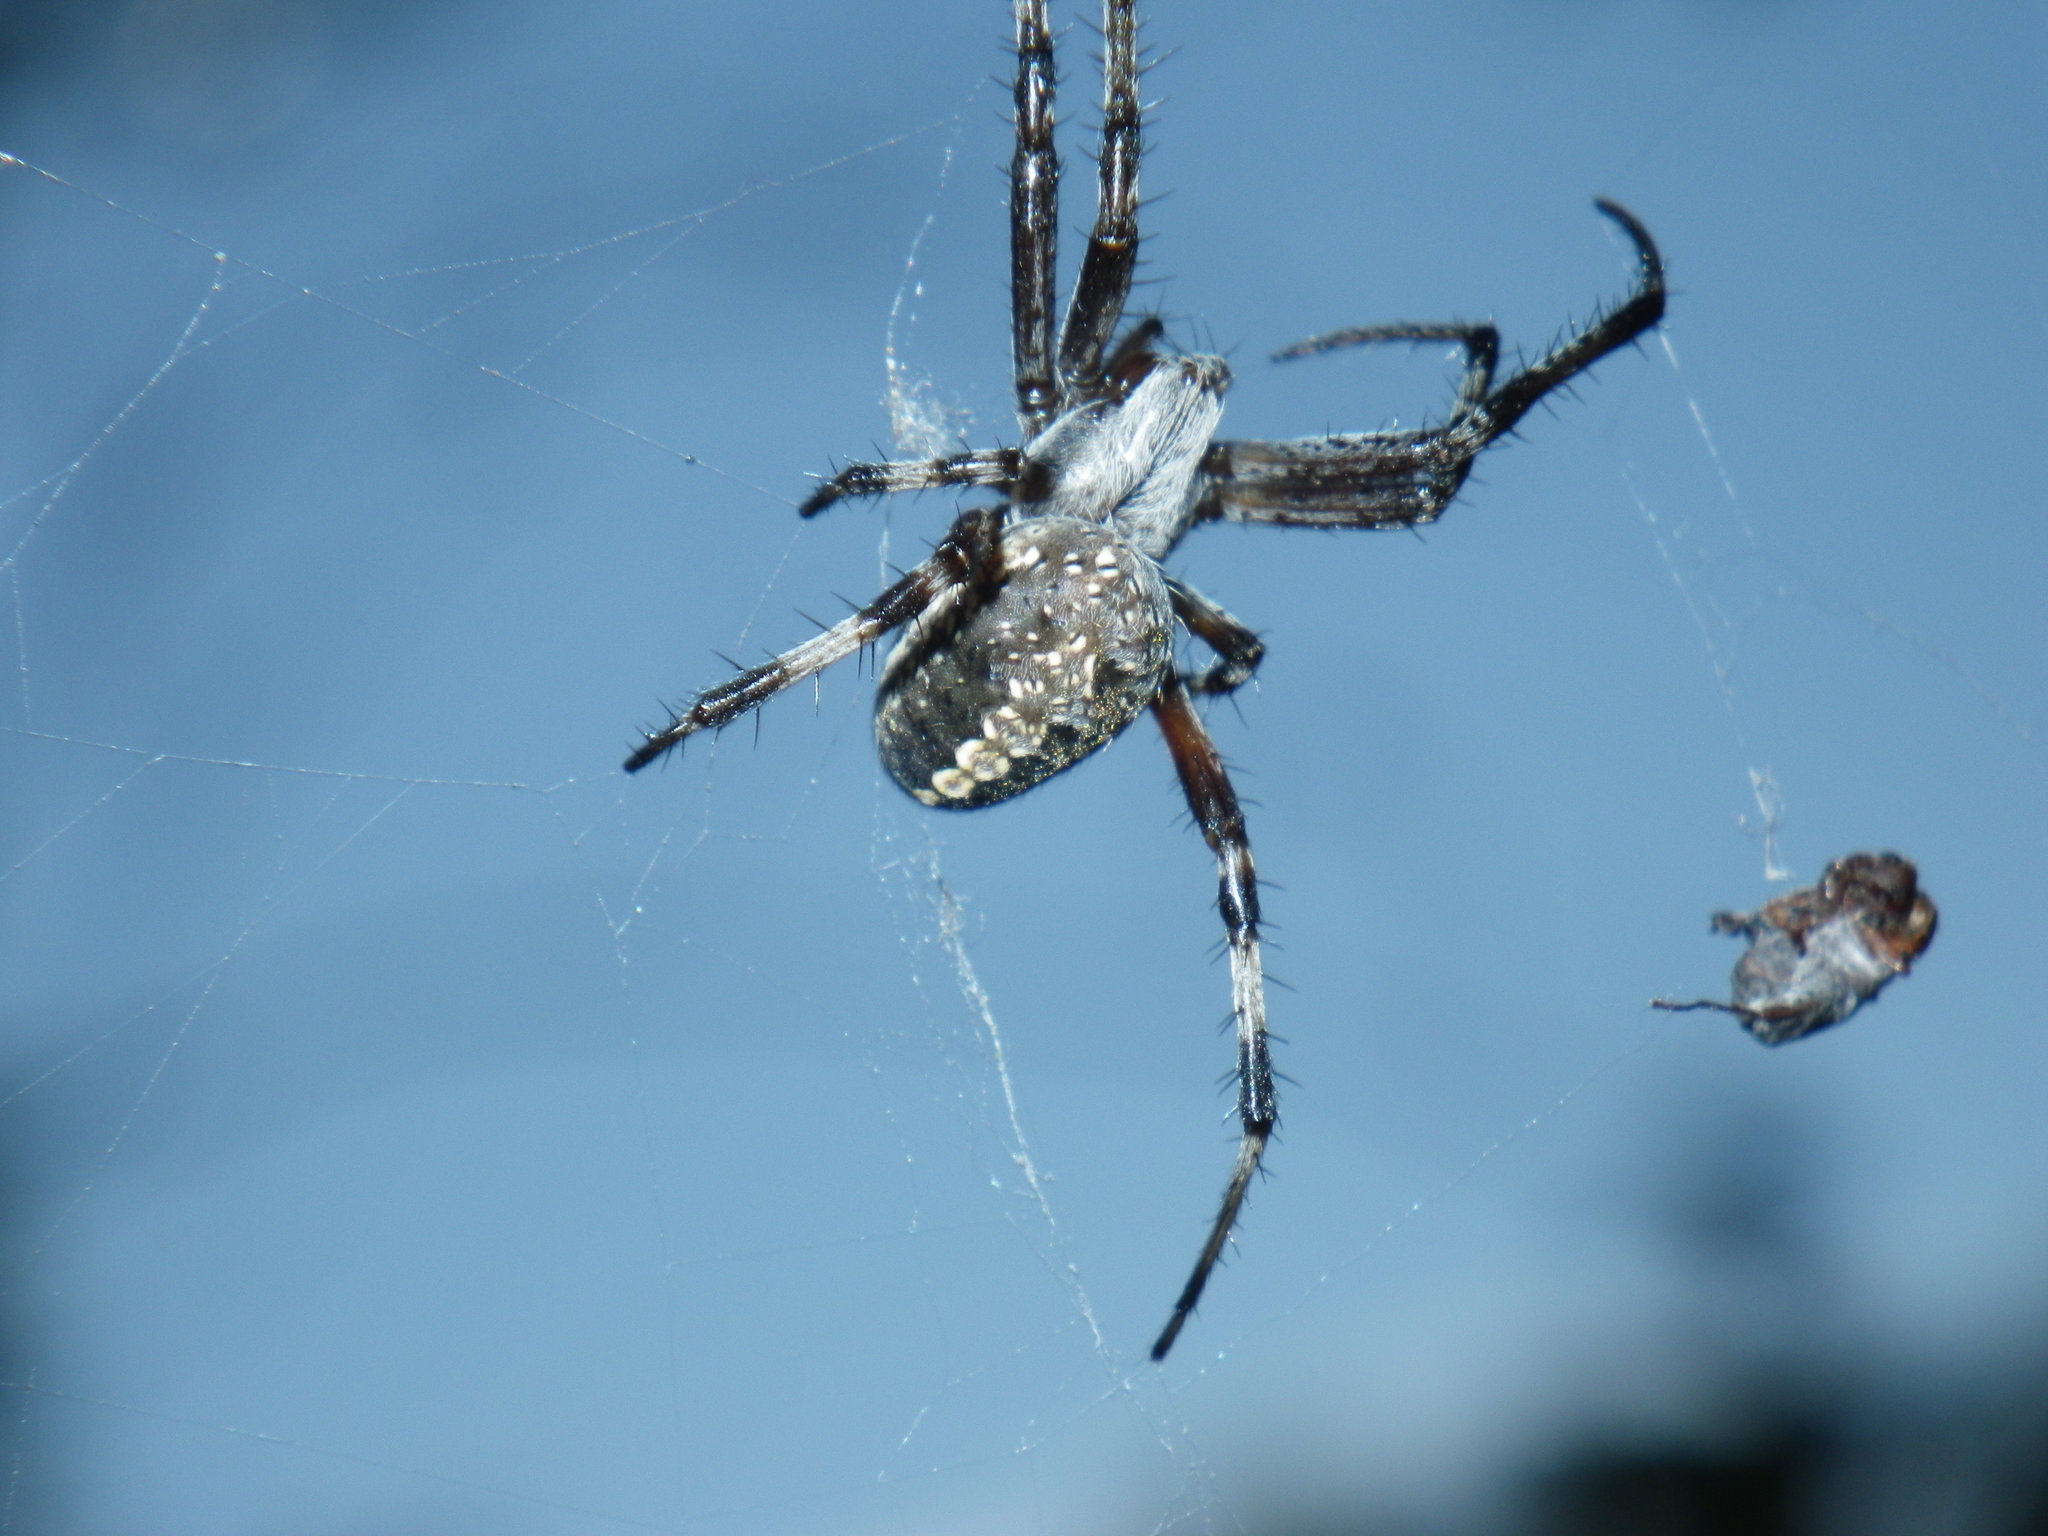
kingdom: Animalia
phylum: Arthropoda
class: Arachnida
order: Araneae
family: Araneidae
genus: Neoscona
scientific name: Neoscona oaxacensis
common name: Orb weavers
